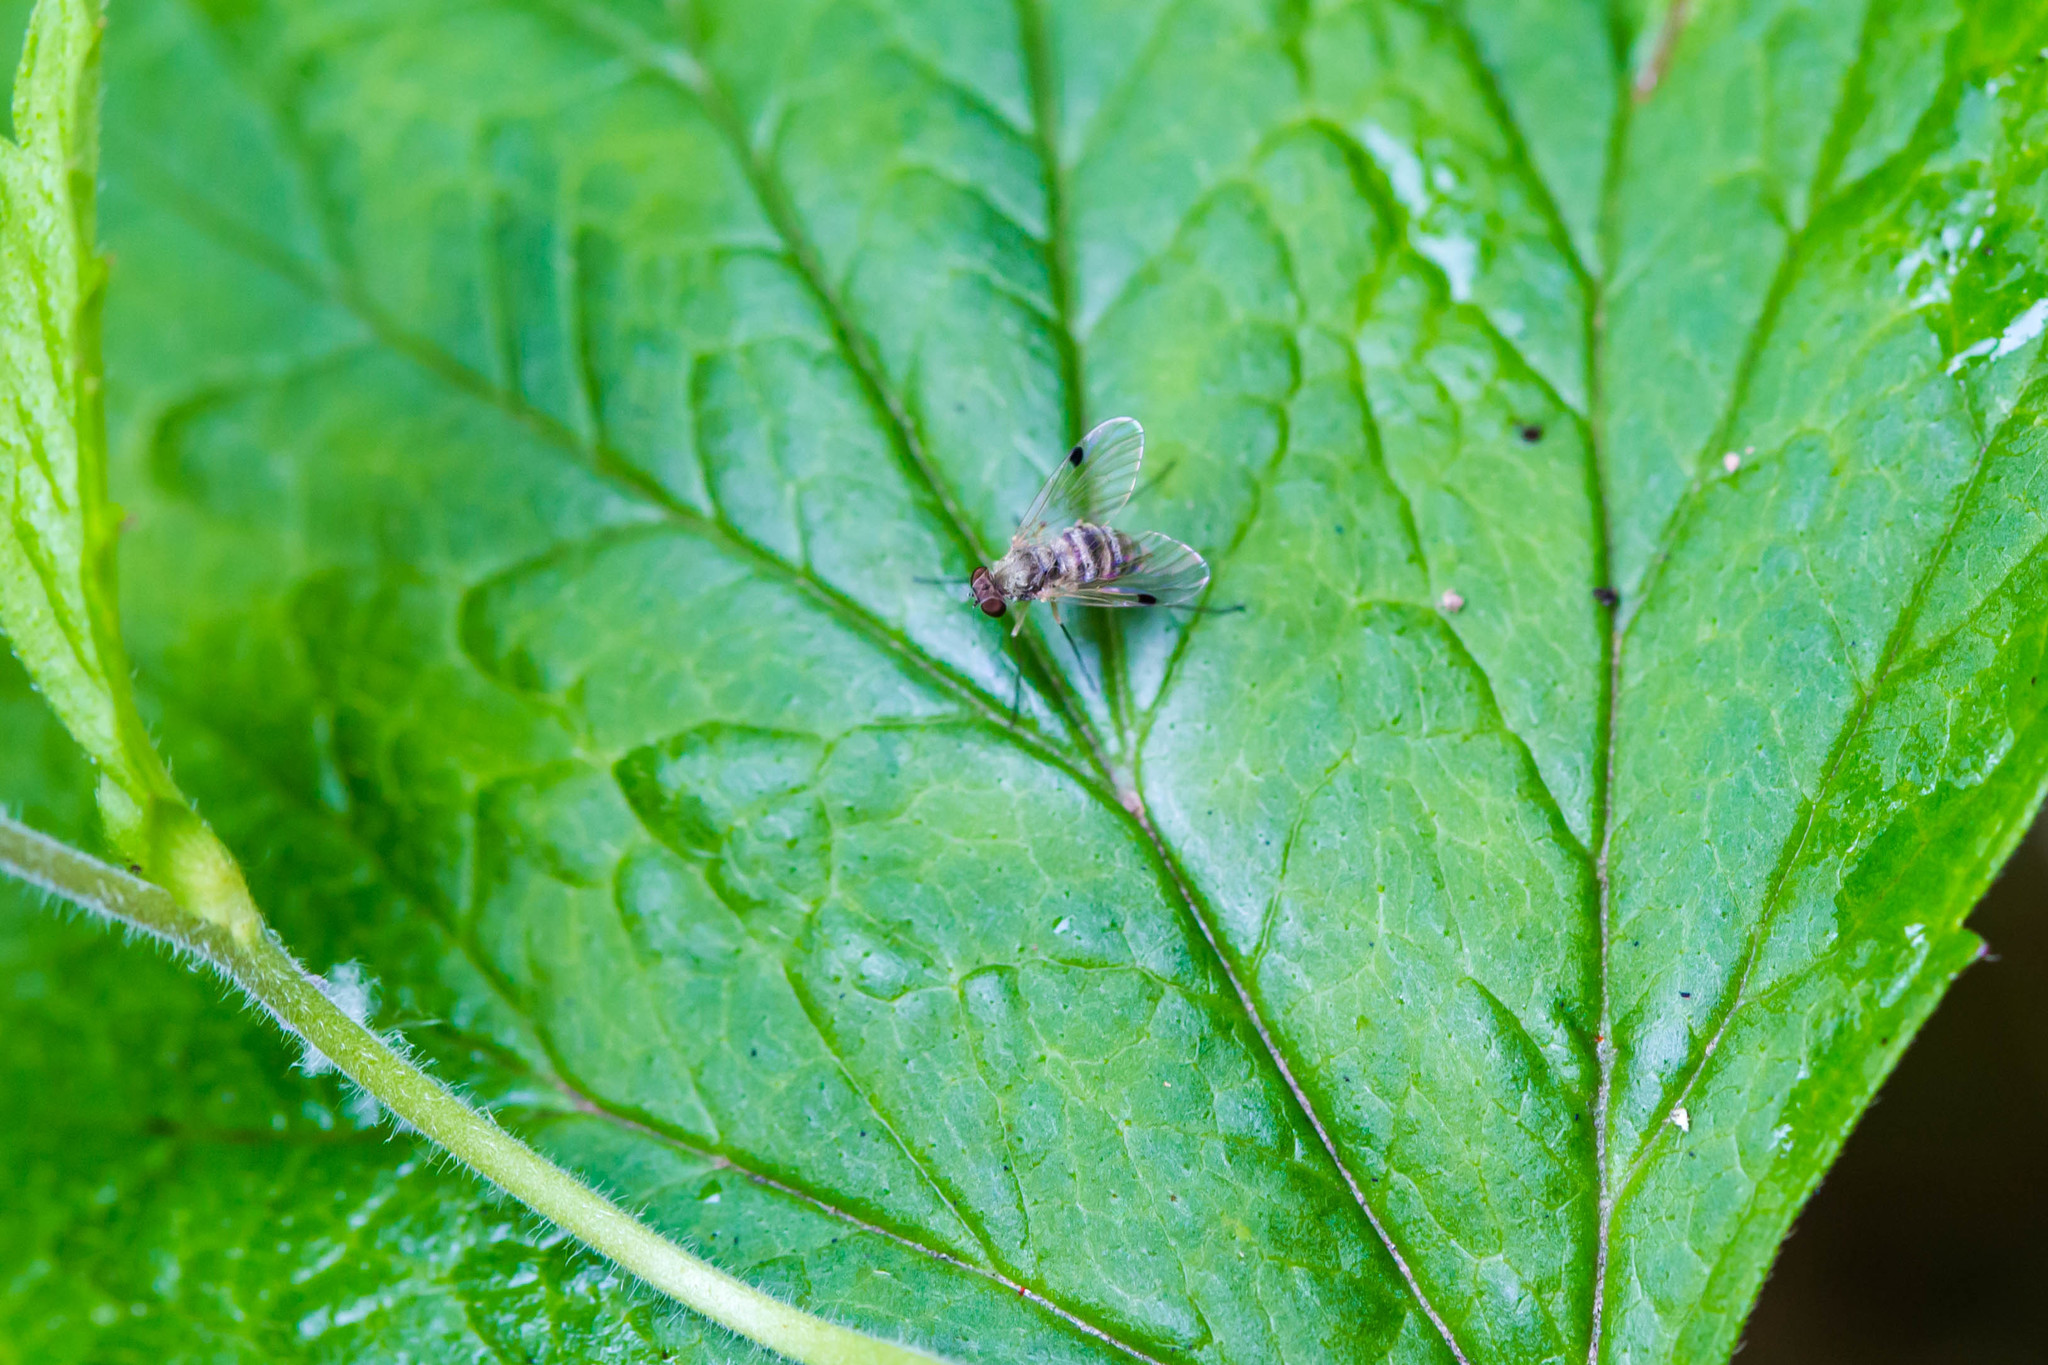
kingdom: Animalia
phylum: Arthropoda
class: Insecta
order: Diptera
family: Rhagionidae
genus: Chrysopilus
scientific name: Chrysopilus modestus
